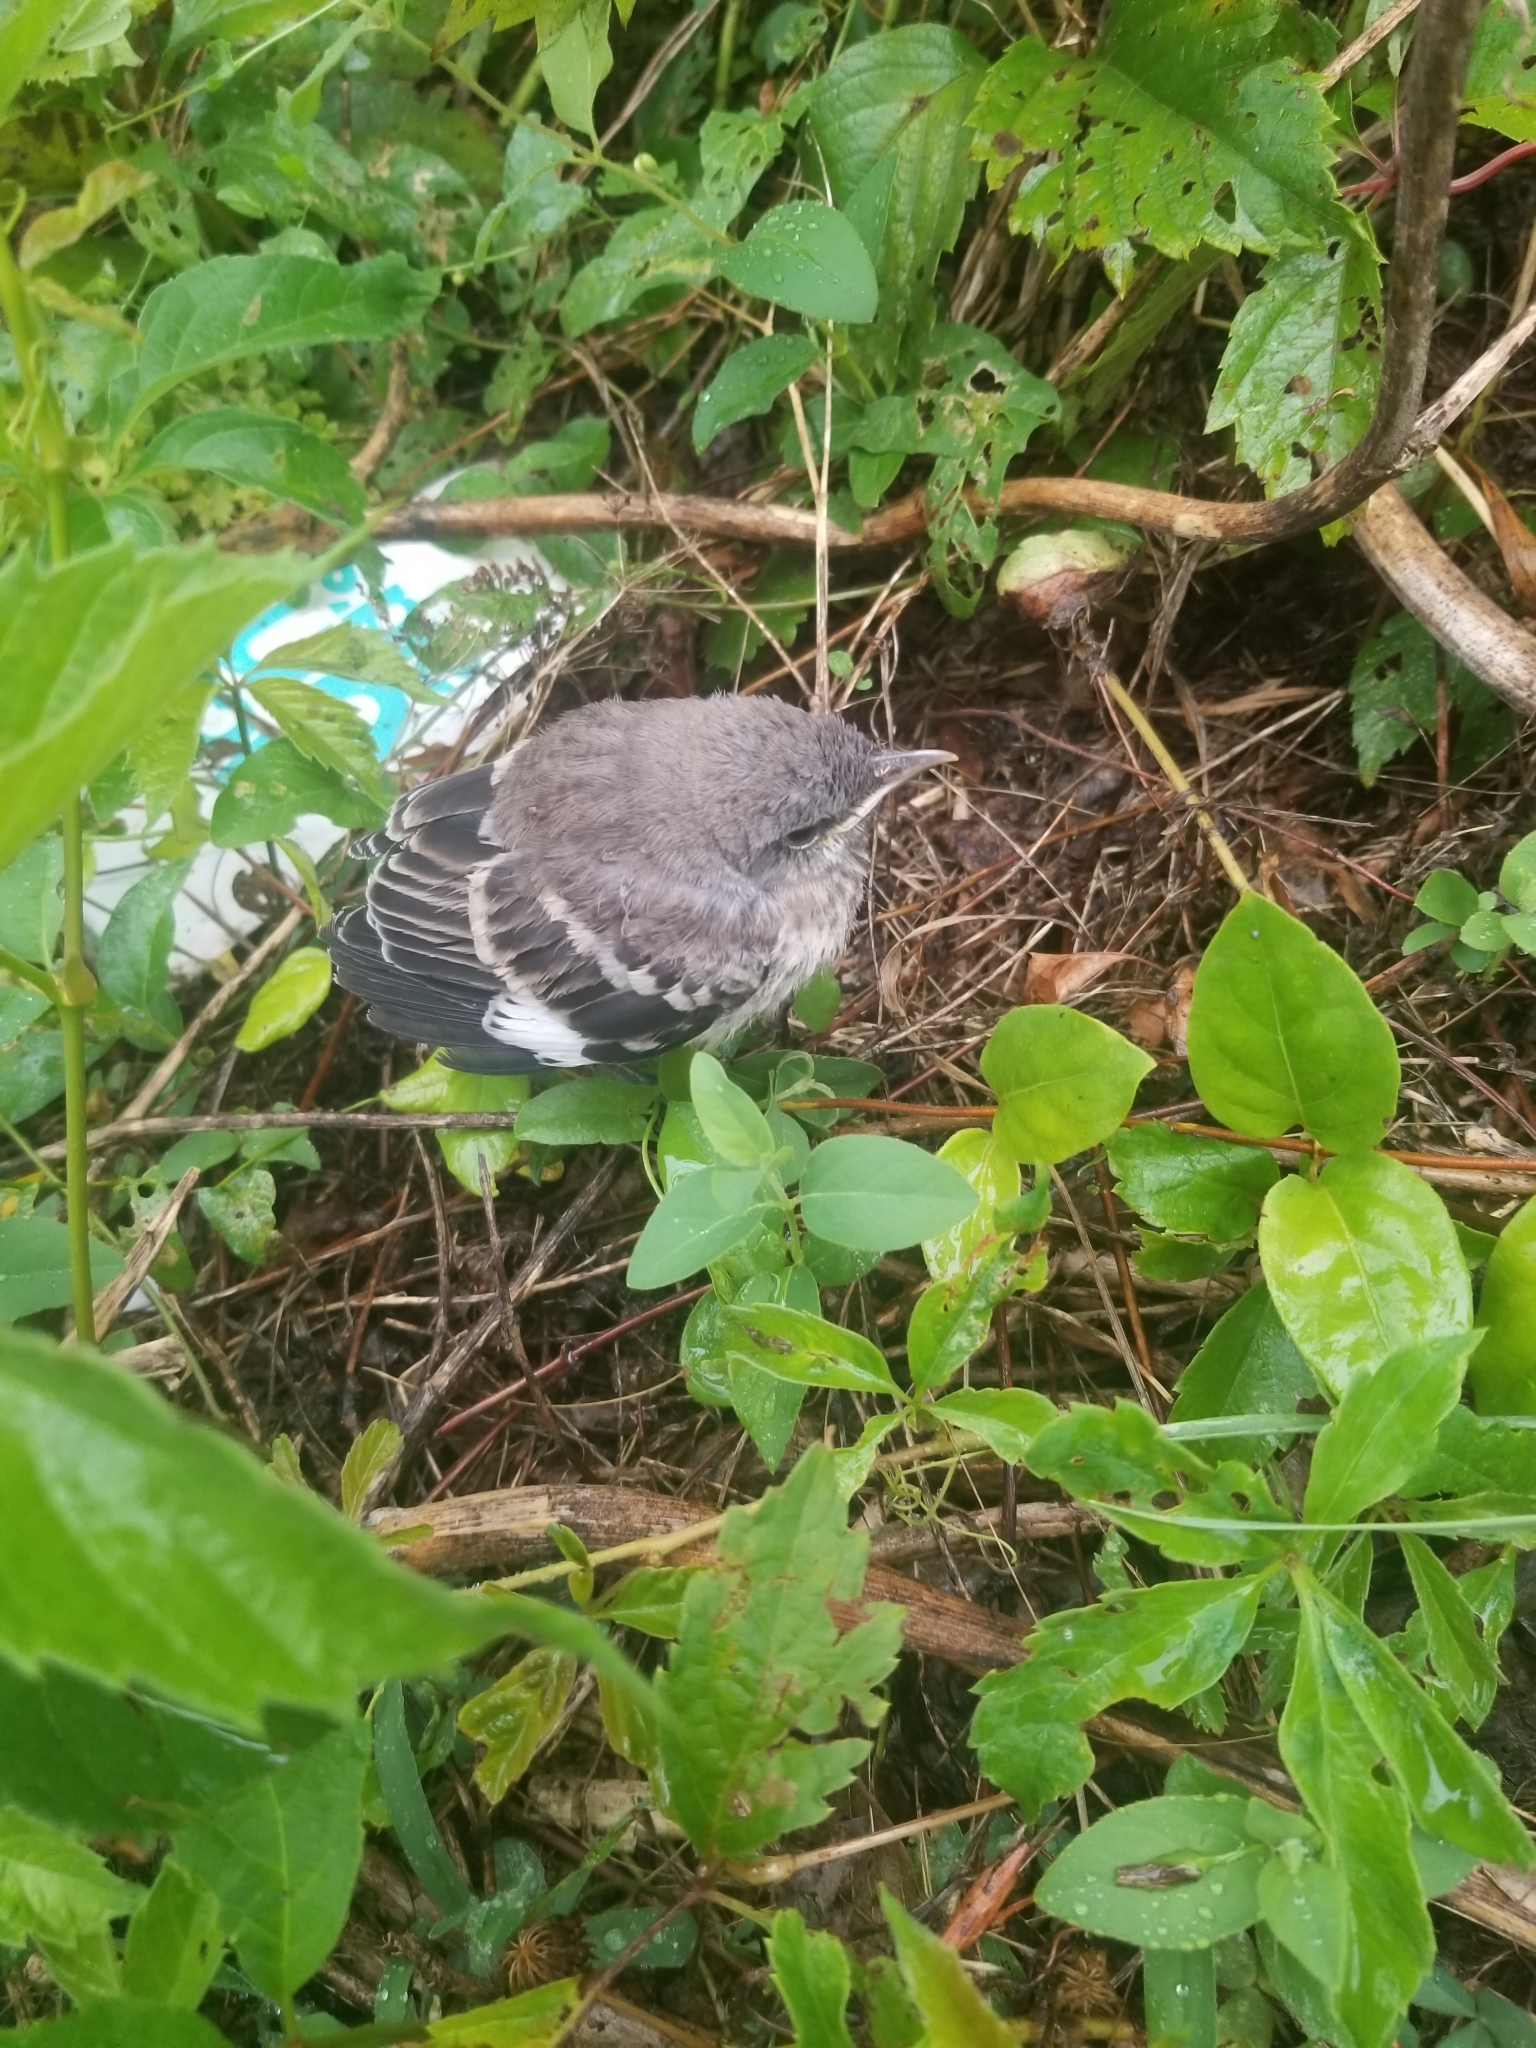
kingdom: Animalia
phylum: Chordata
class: Aves
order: Passeriformes
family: Mimidae
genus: Mimus
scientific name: Mimus polyglottos
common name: Northern mockingbird
